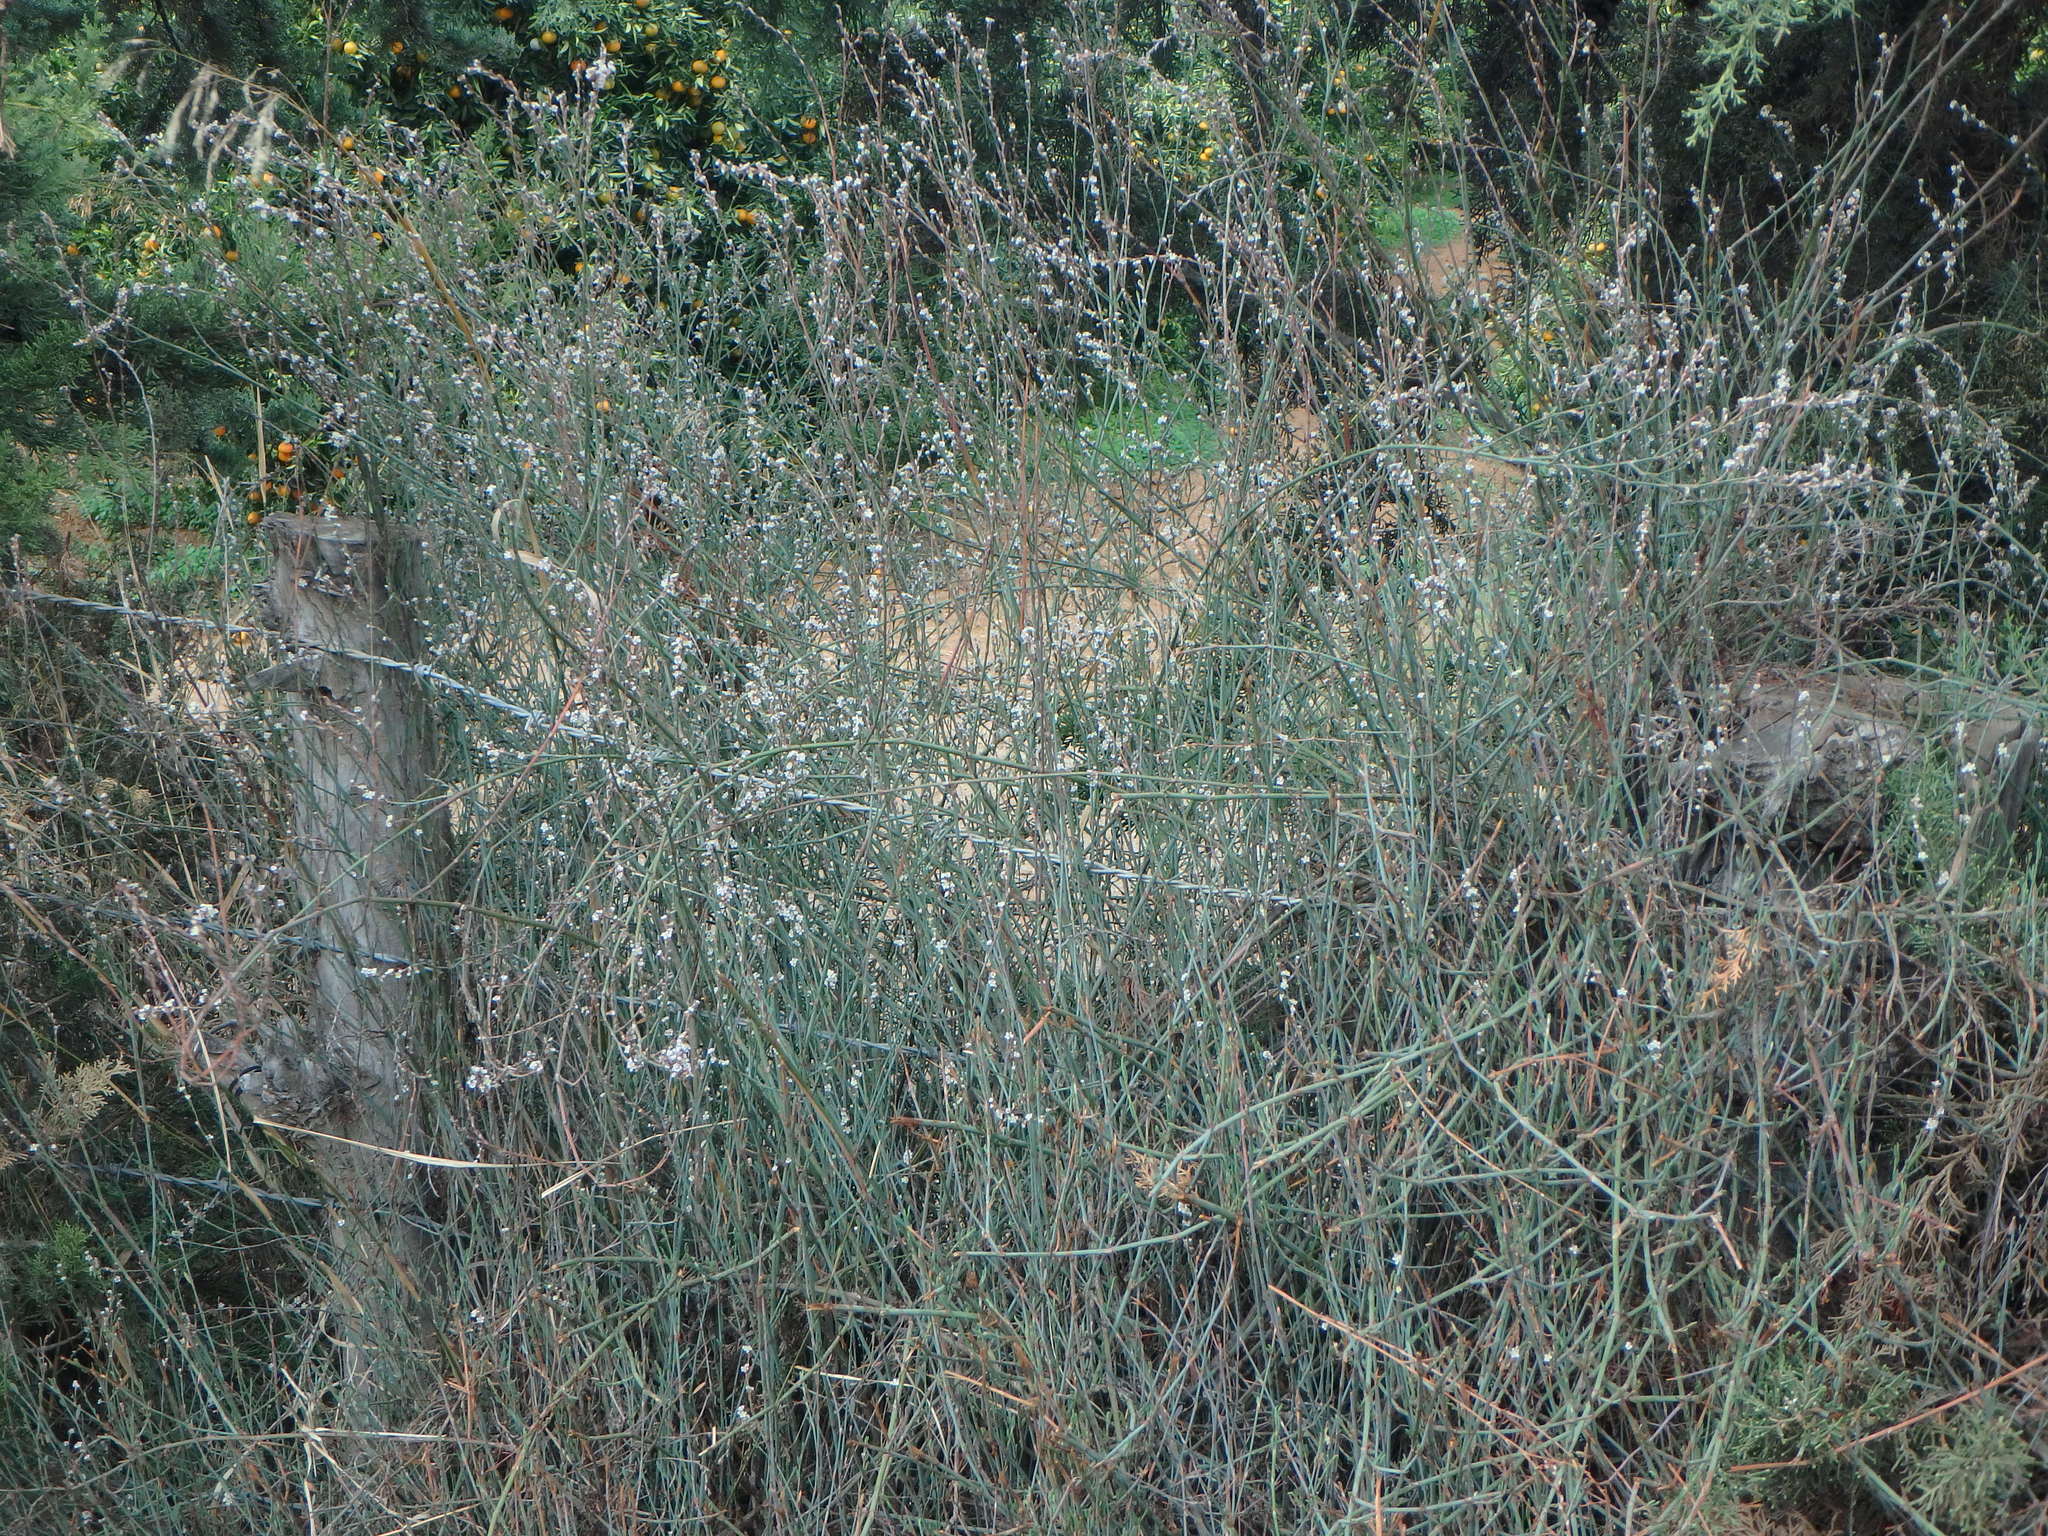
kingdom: Plantae
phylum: Tracheophyta
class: Magnoliopsida
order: Caryophyllales
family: Polygonaceae
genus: Polygonum
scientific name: Polygonum equisetiforme
